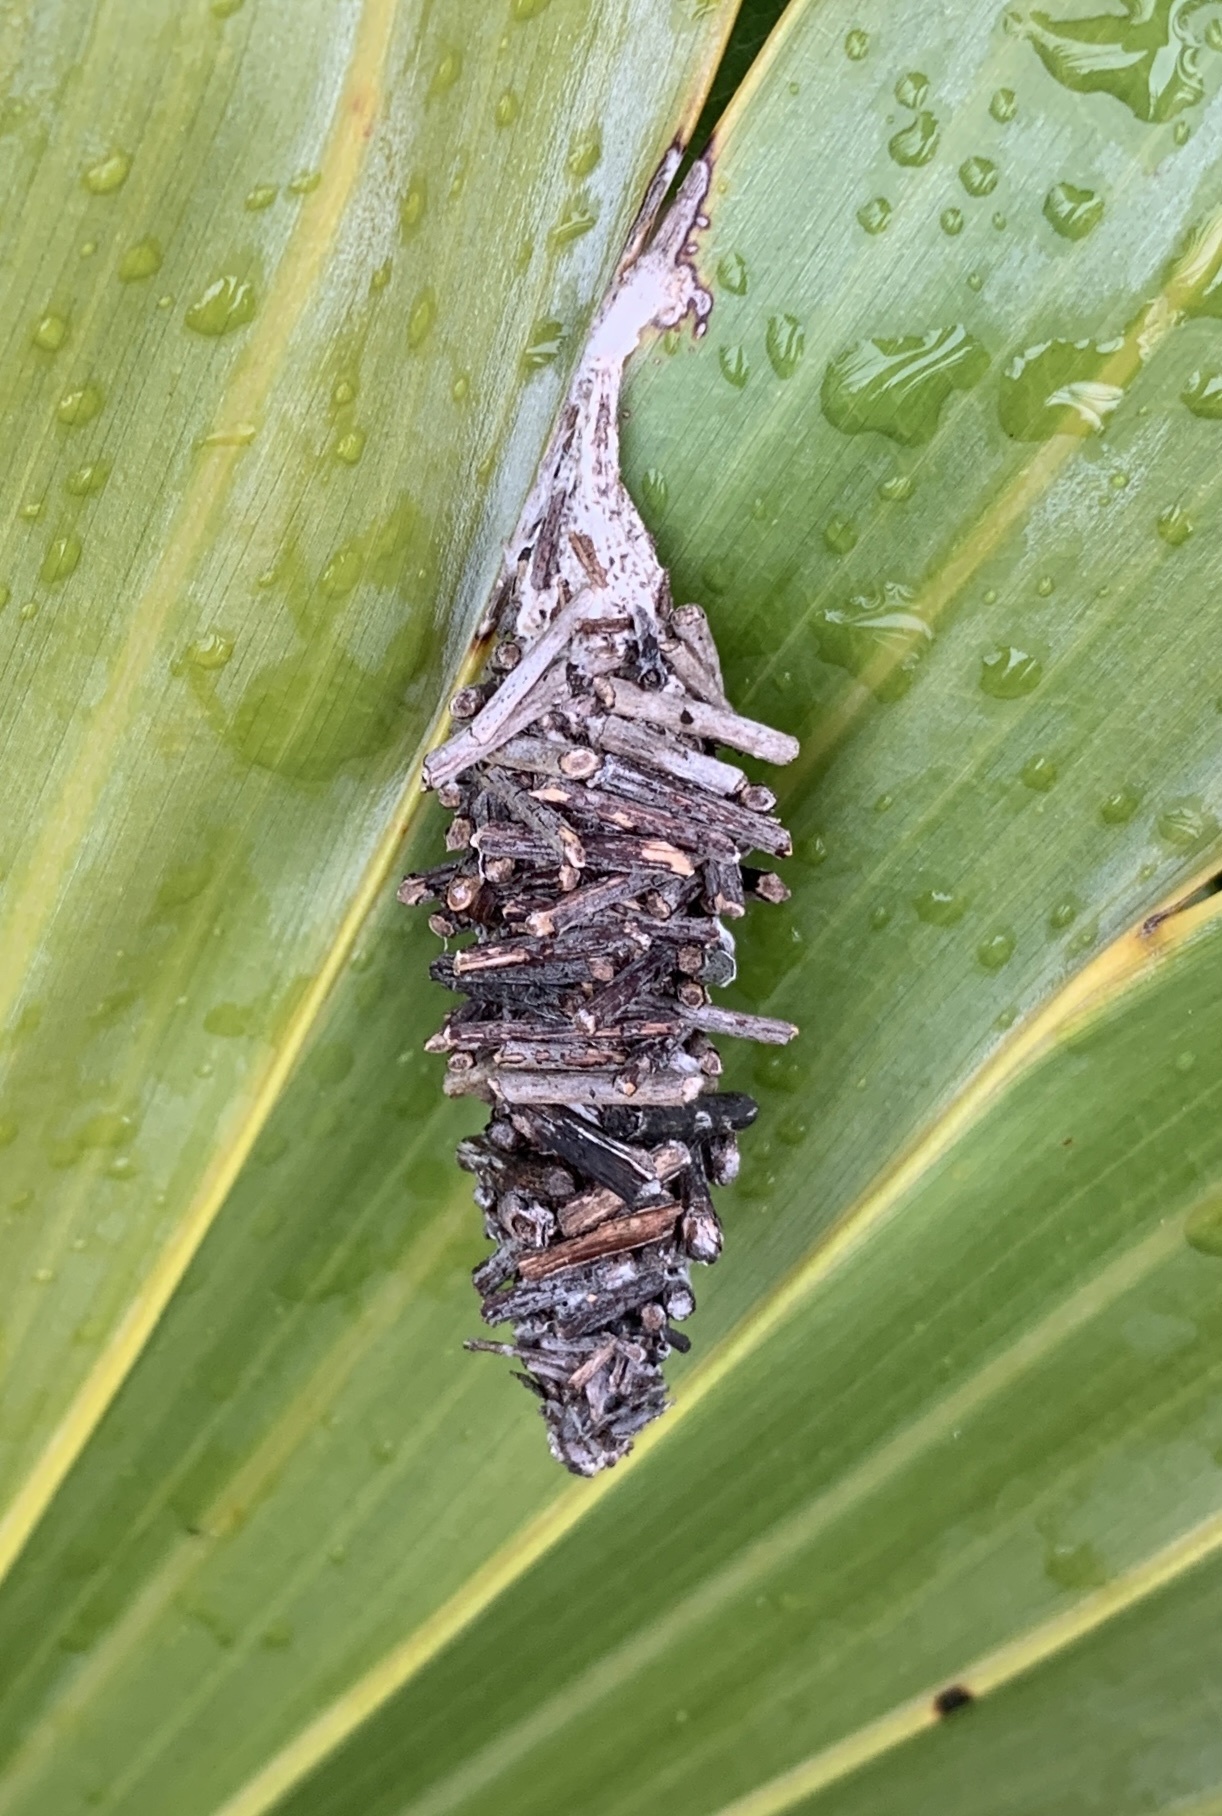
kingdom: Animalia
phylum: Arthropoda
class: Insecta
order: Lepidoptera
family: Psychidae
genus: Oiketicus
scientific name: Oiketicus
